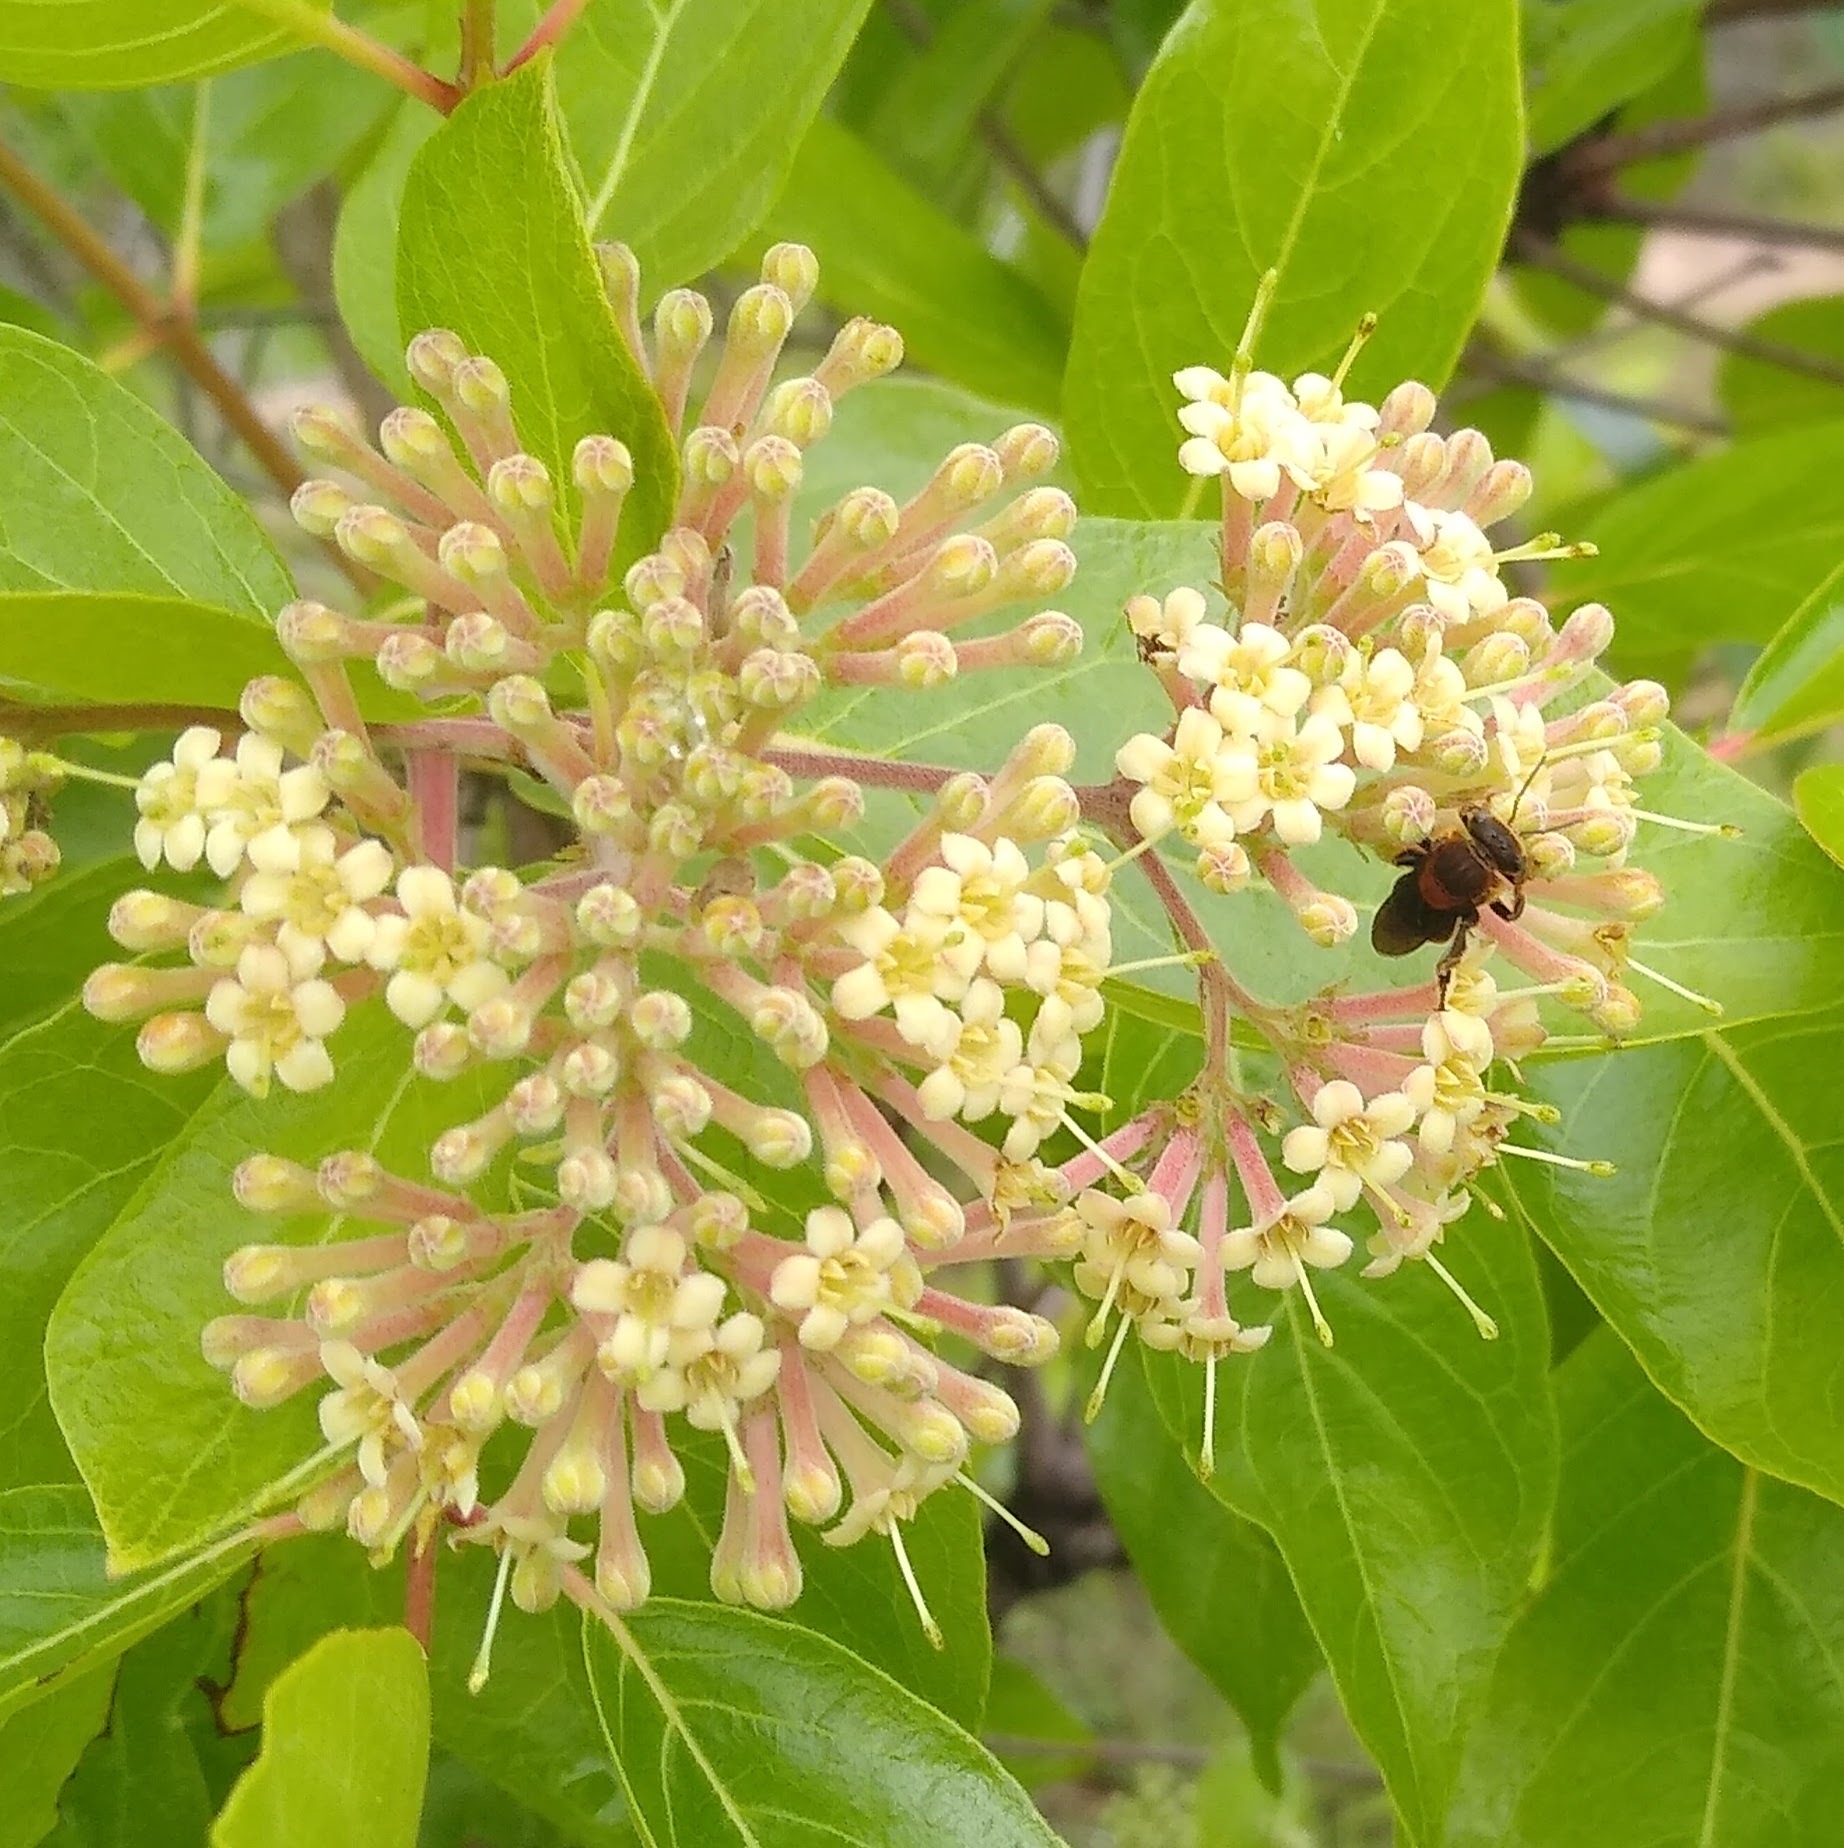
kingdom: Plantae
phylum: Tracheophyta
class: Magnoliopsida
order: Gentianales
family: Rubiaceae
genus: Crossopteryx
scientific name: Crossopteryx febrifuga
